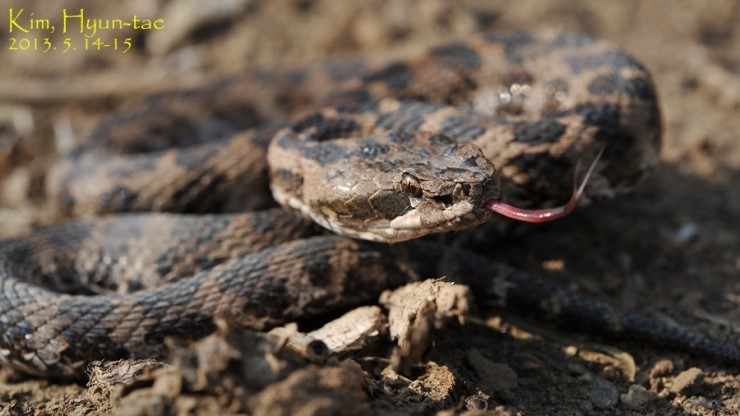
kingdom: Animalia
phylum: Chordata
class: Squamata
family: Viperidae
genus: Gloydius
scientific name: Gloydius intermedius
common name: Central asian pit viper
